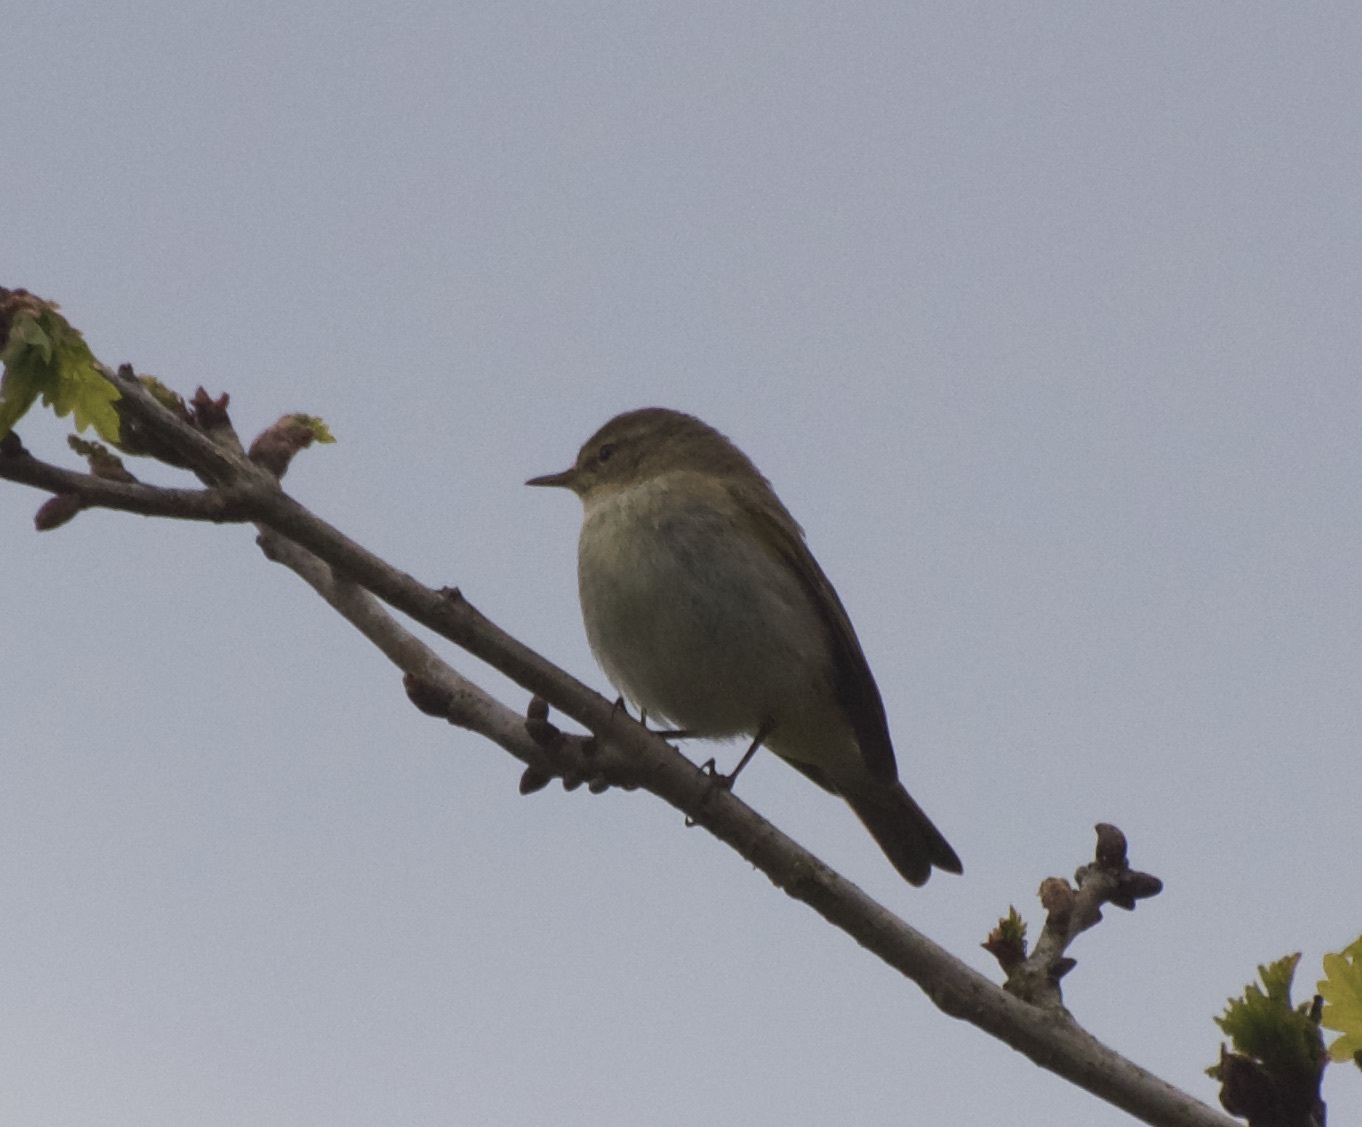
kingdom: Animalia
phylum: Chordata
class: Aves
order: Passeriformes
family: Phylloscopidae
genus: Phylloscopus
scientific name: Phylloscopus collybita
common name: Common chiffchaff
